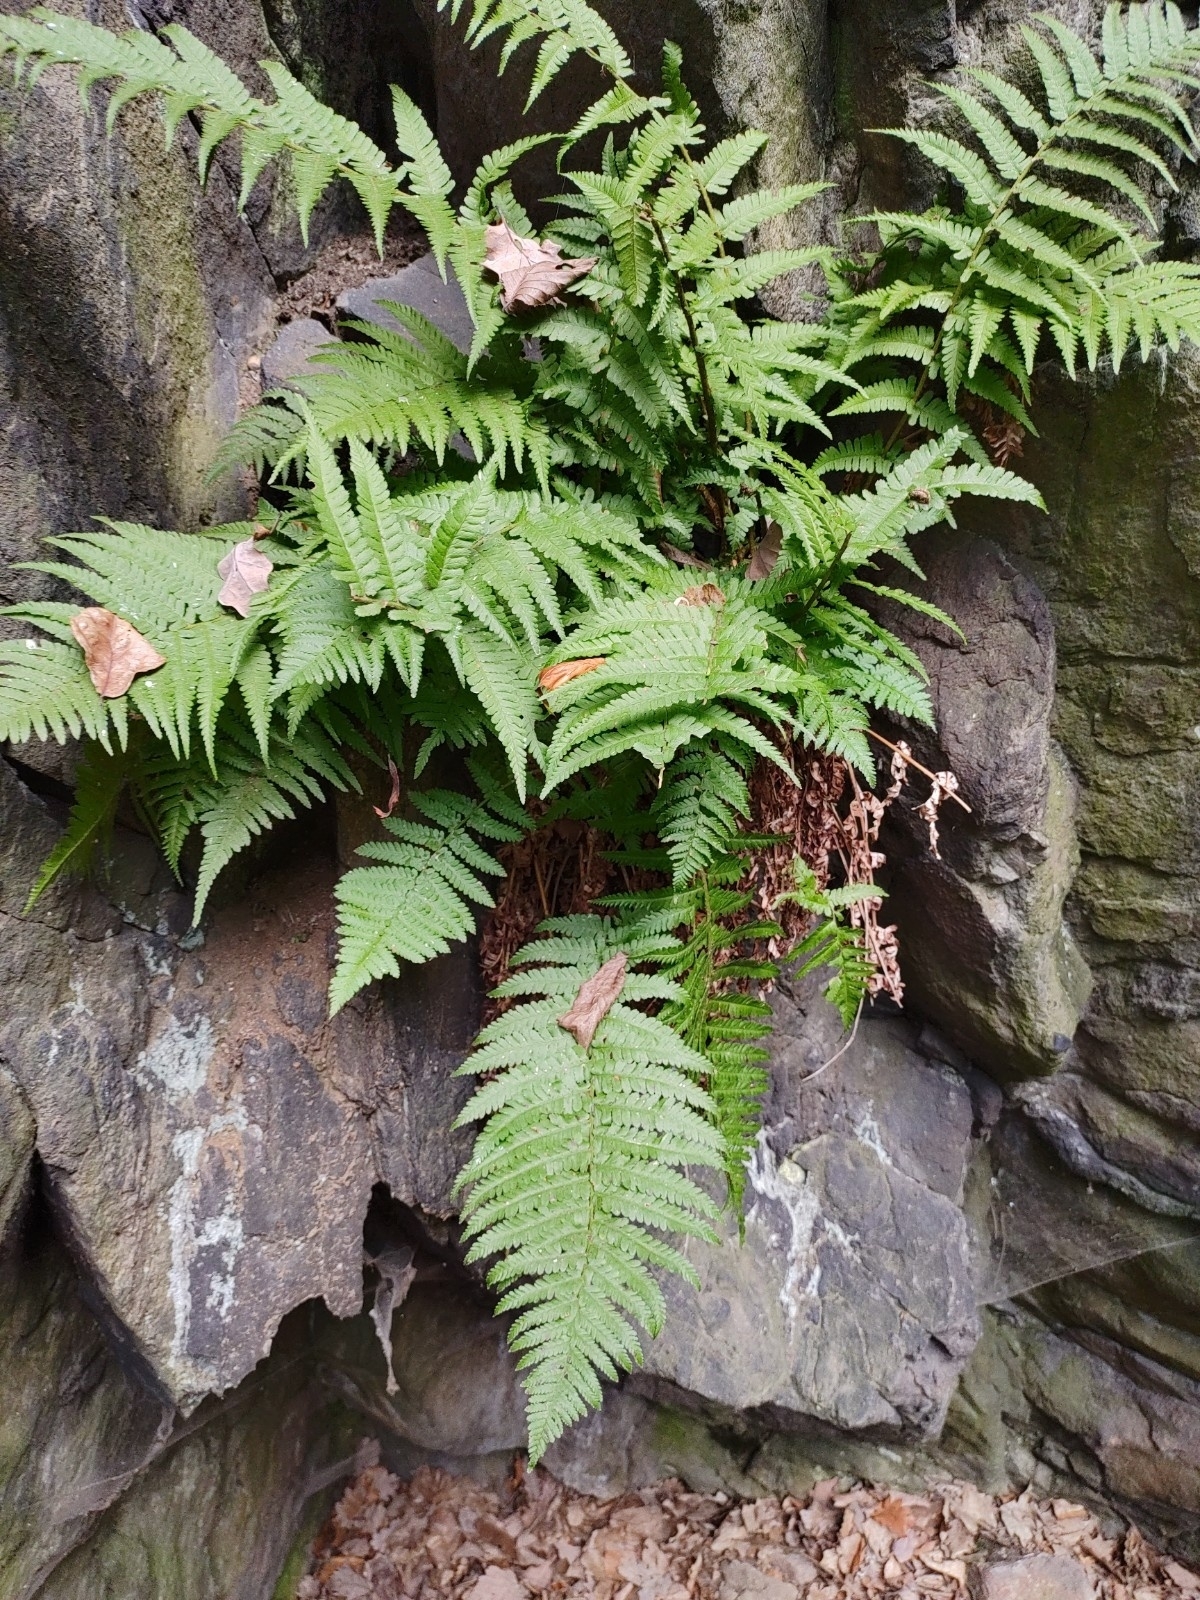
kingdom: Plantae
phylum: Tracheophyta
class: Polypodiopsida
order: Polypodiales
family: Dryopteridaceae
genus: Dryopteris
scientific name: Dryopteris filix-mas
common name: Male fern
